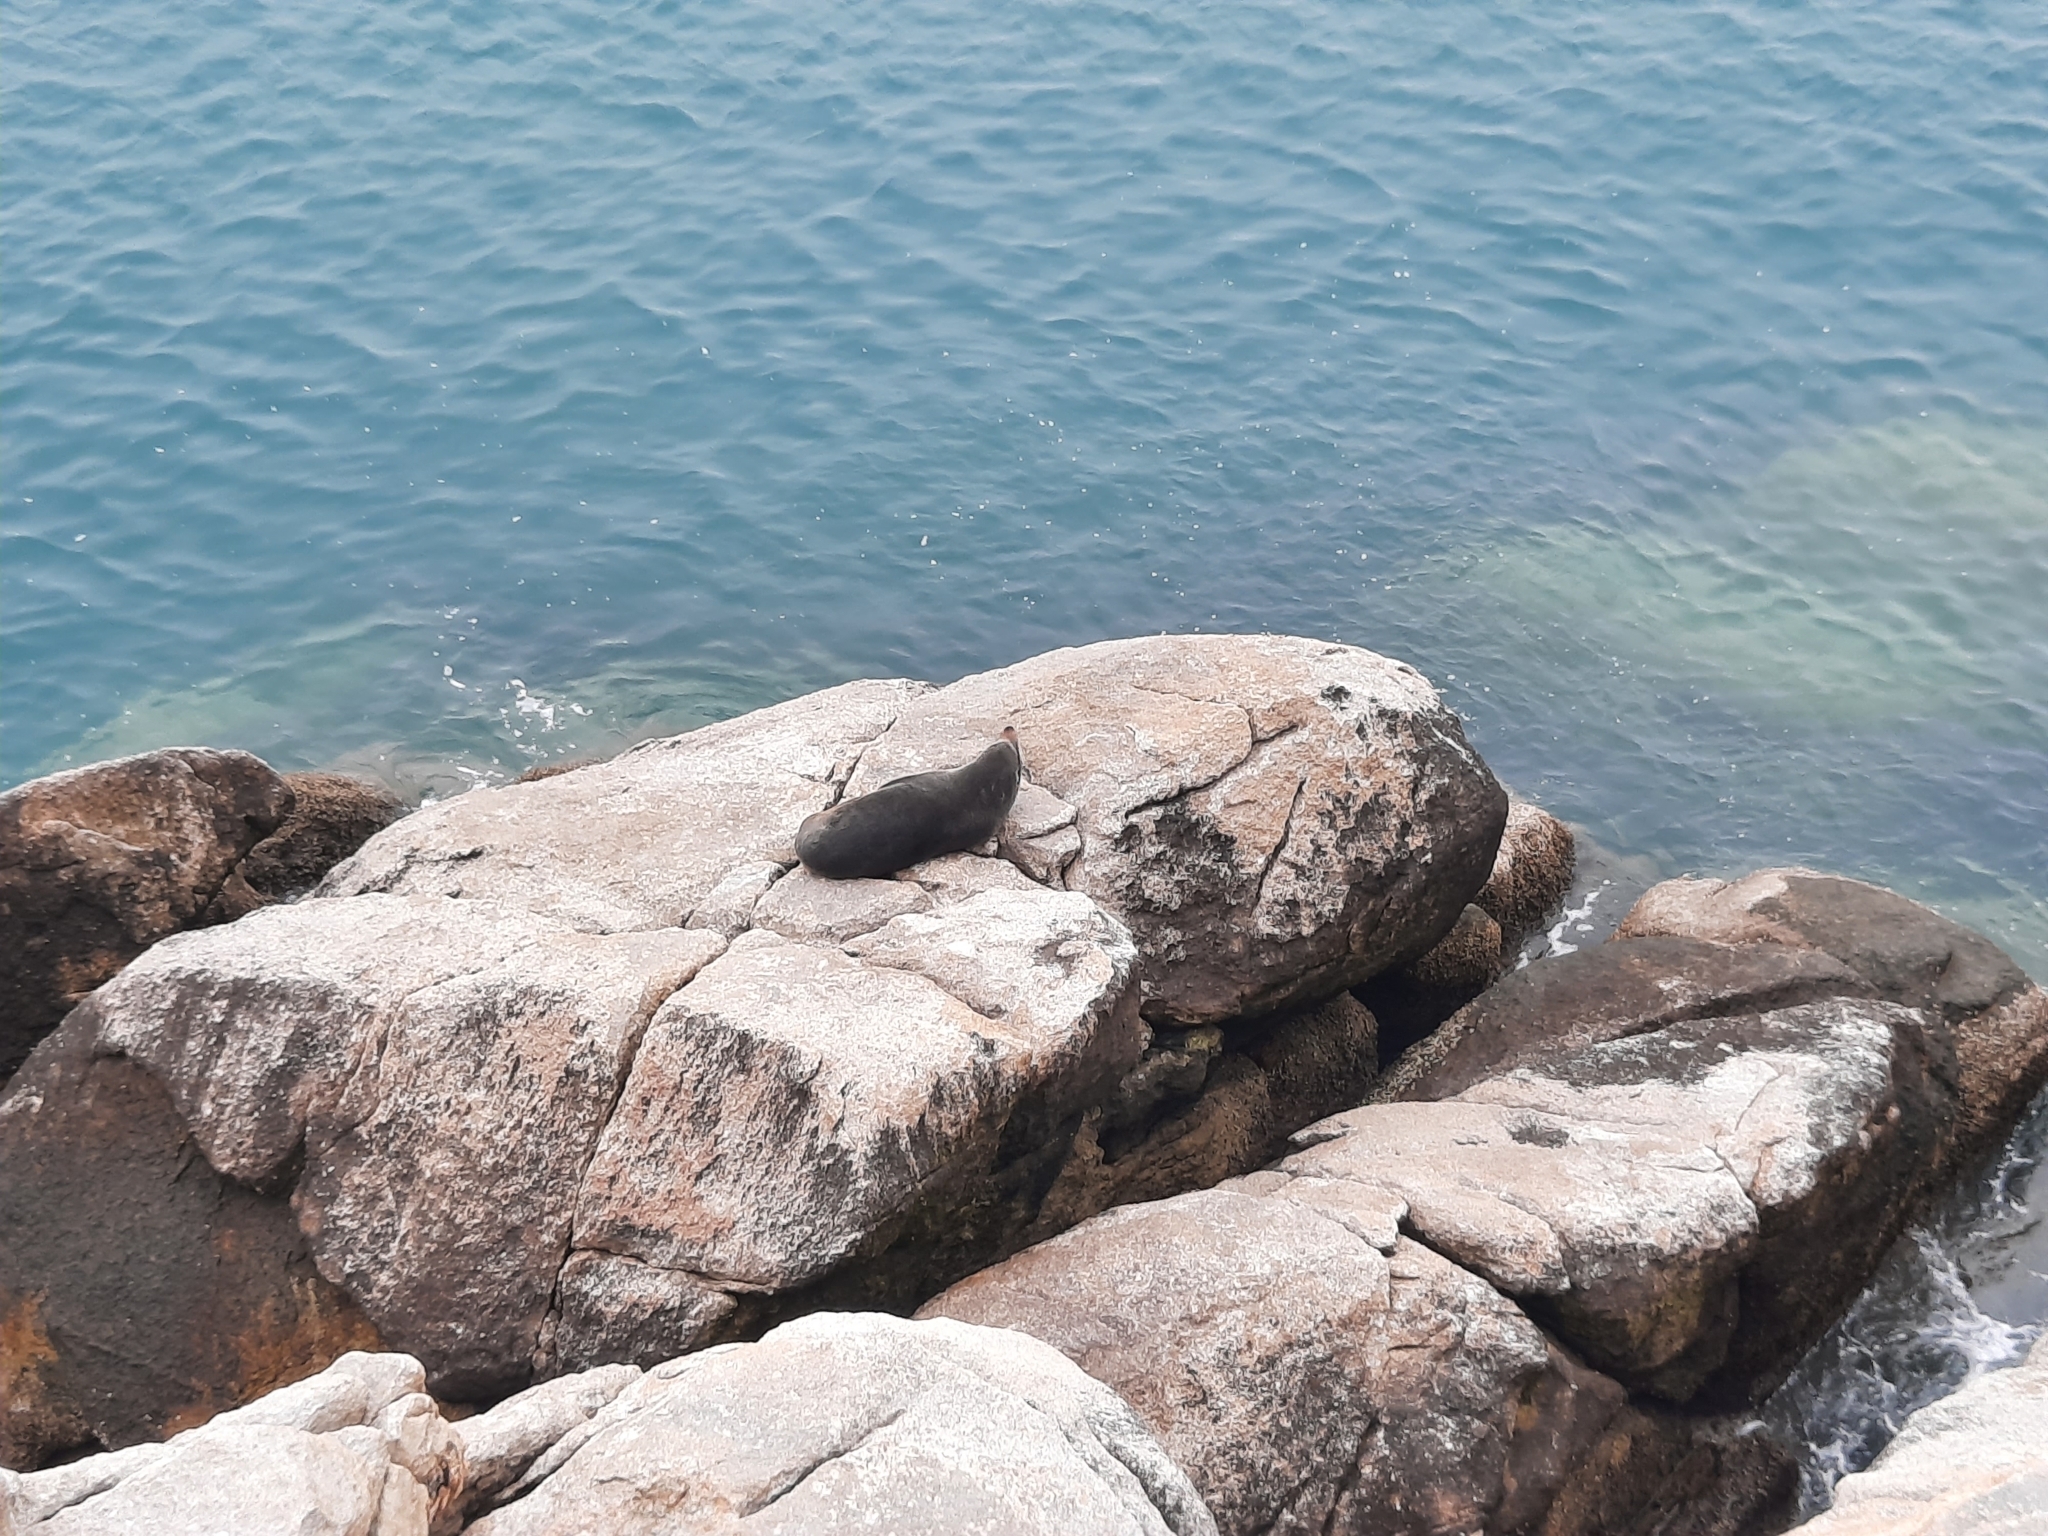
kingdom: Animalia
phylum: Chordata
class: Mammalia
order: Carnivora
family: Otariidae
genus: Arctocephalus
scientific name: Arctocephalus forsteri
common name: New zealand fur seal
